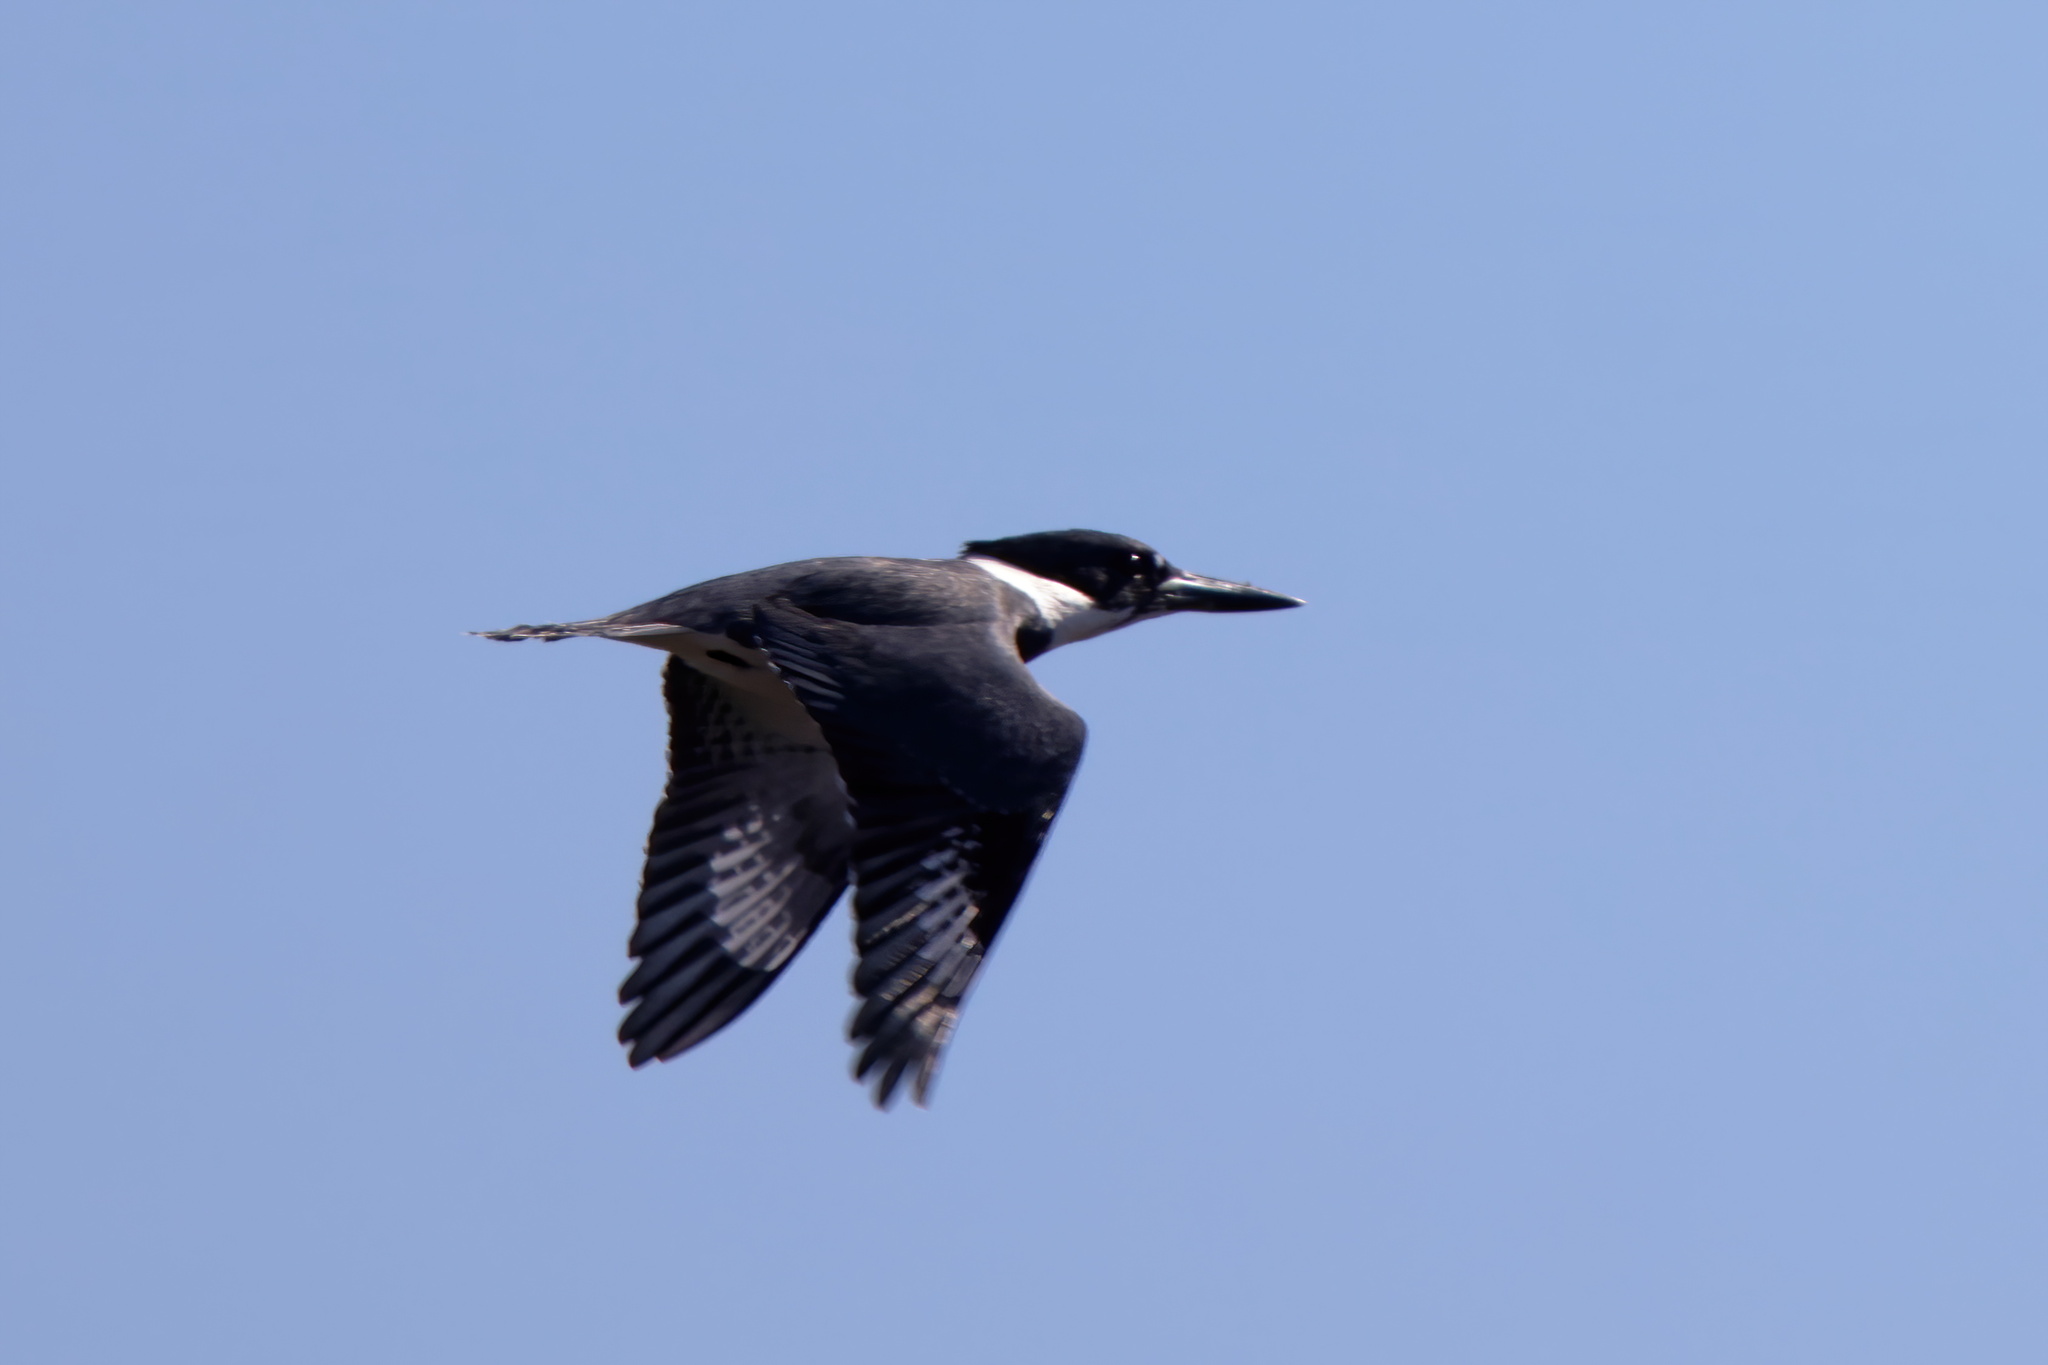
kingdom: Animalia
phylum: Chordata
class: Aves
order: Coraciiformes
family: Alcedinidae
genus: Megaceryle
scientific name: Megaceryle alcyon
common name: Belted kingfisher
